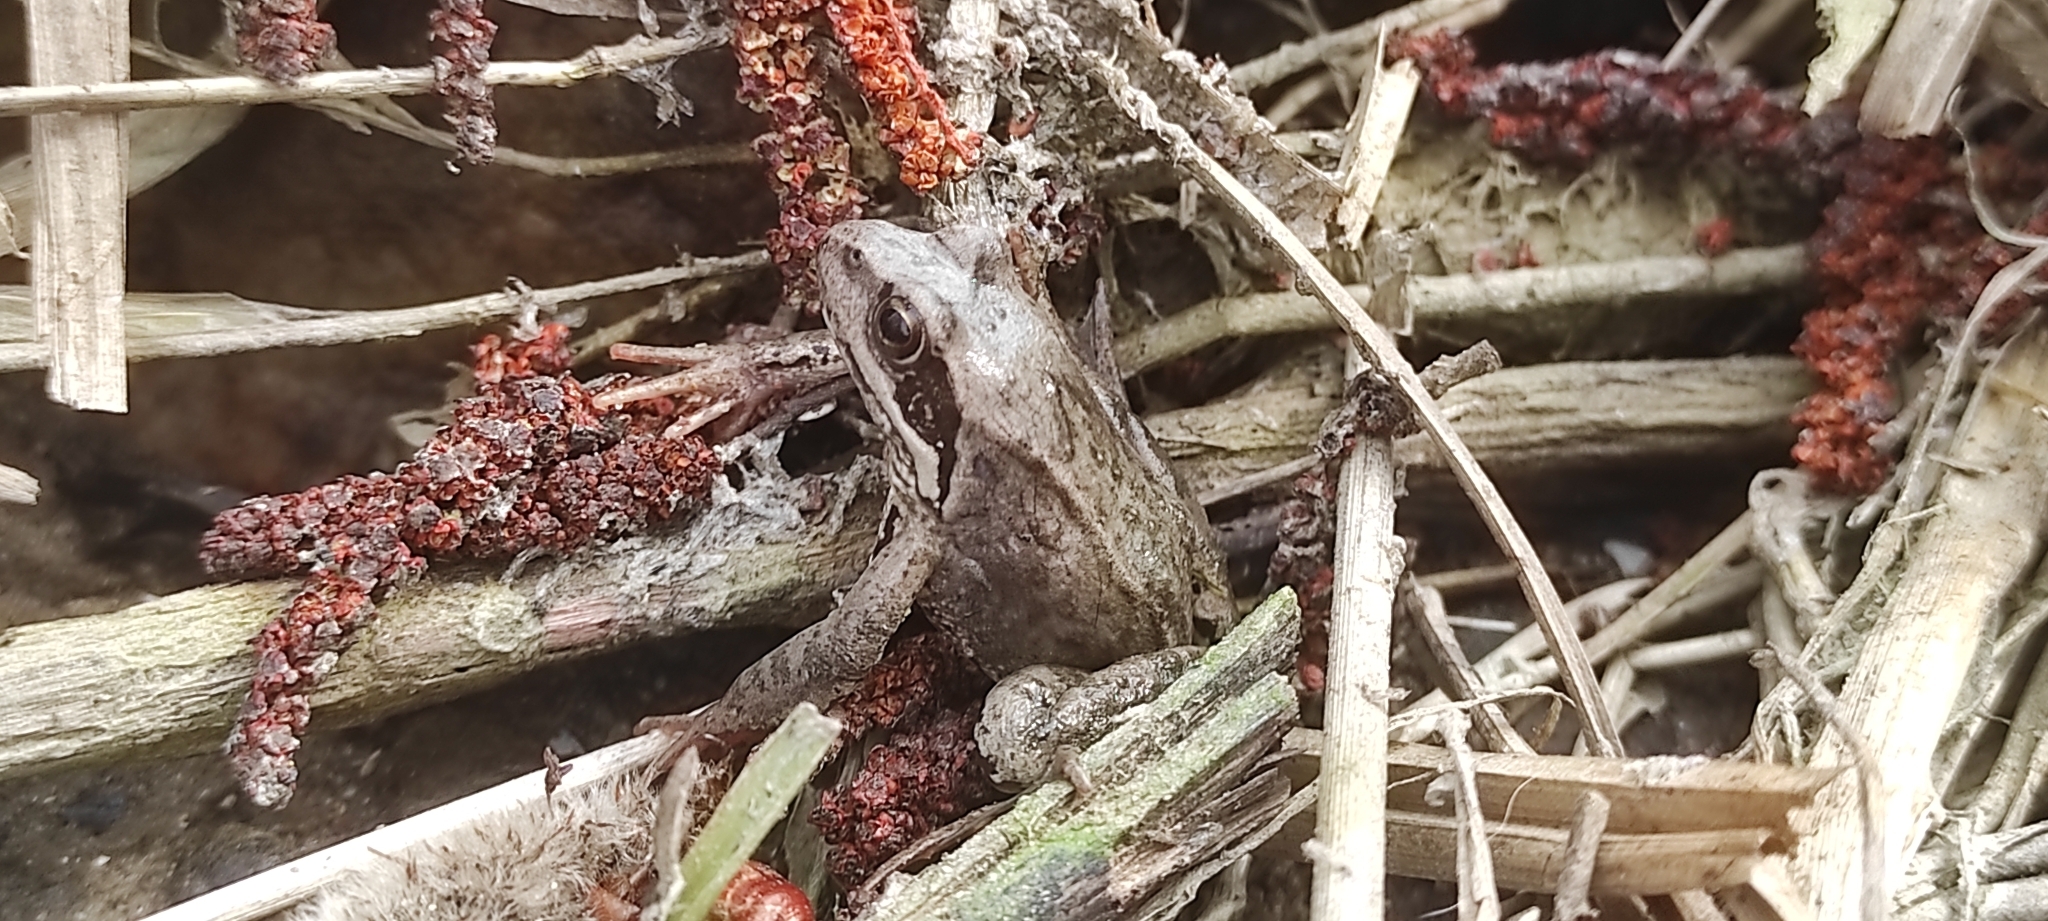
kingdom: Animalia
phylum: Chordata
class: Amphibia
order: Anura
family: Ranidae
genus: Rana
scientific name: Rana temporaria
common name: Common frog
